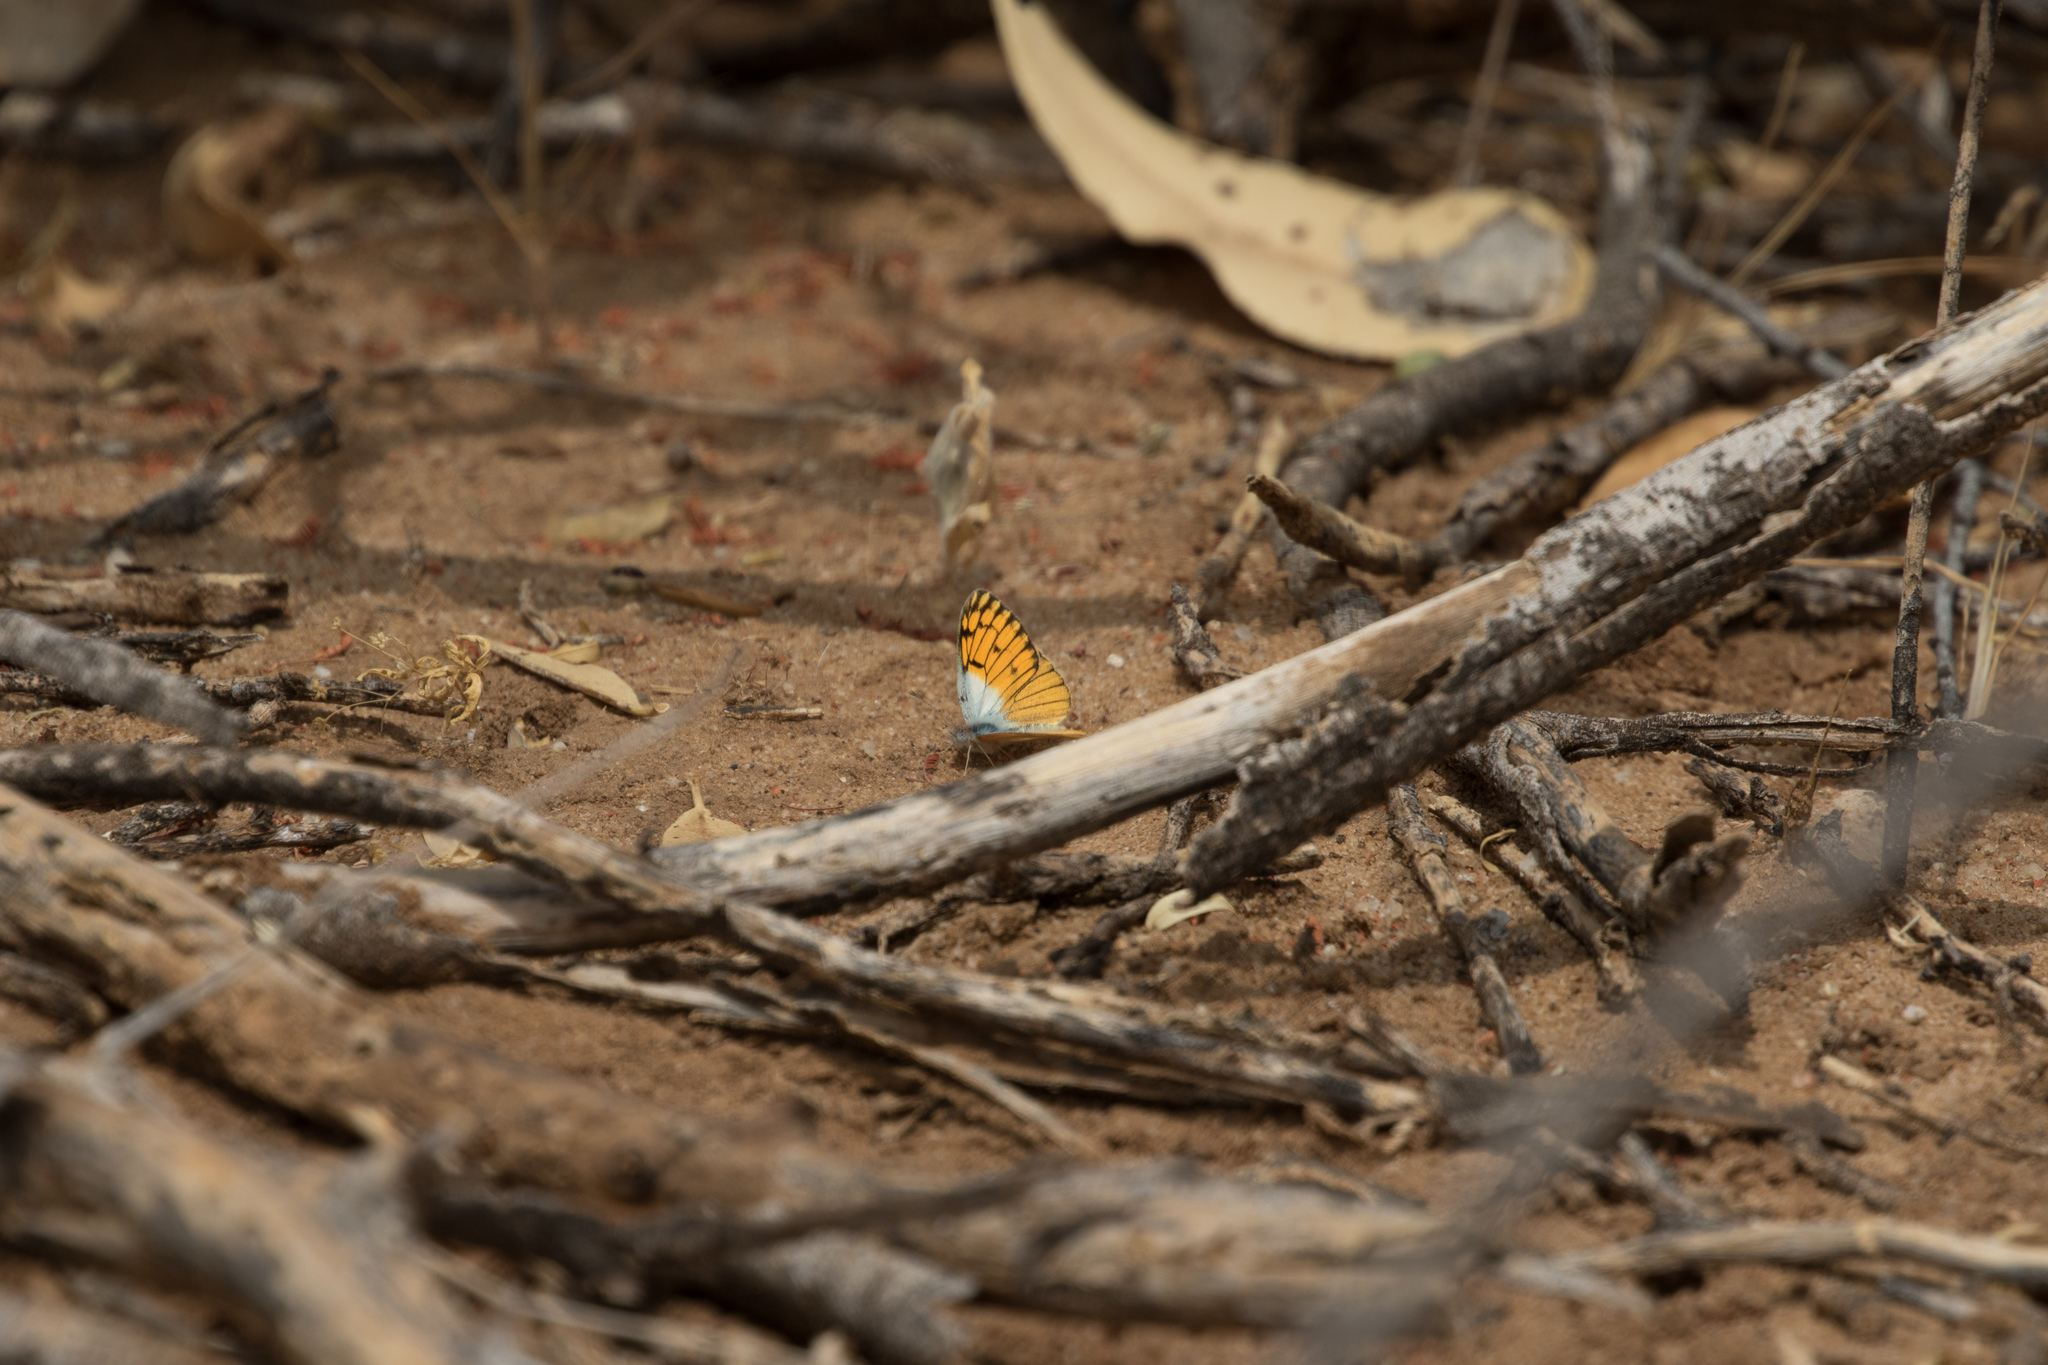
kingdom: Animalia
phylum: Arthropoda
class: Insecta
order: Lepidoptera
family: Pieridae
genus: Colotis
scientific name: Colotis chrysonome
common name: Golden arab
